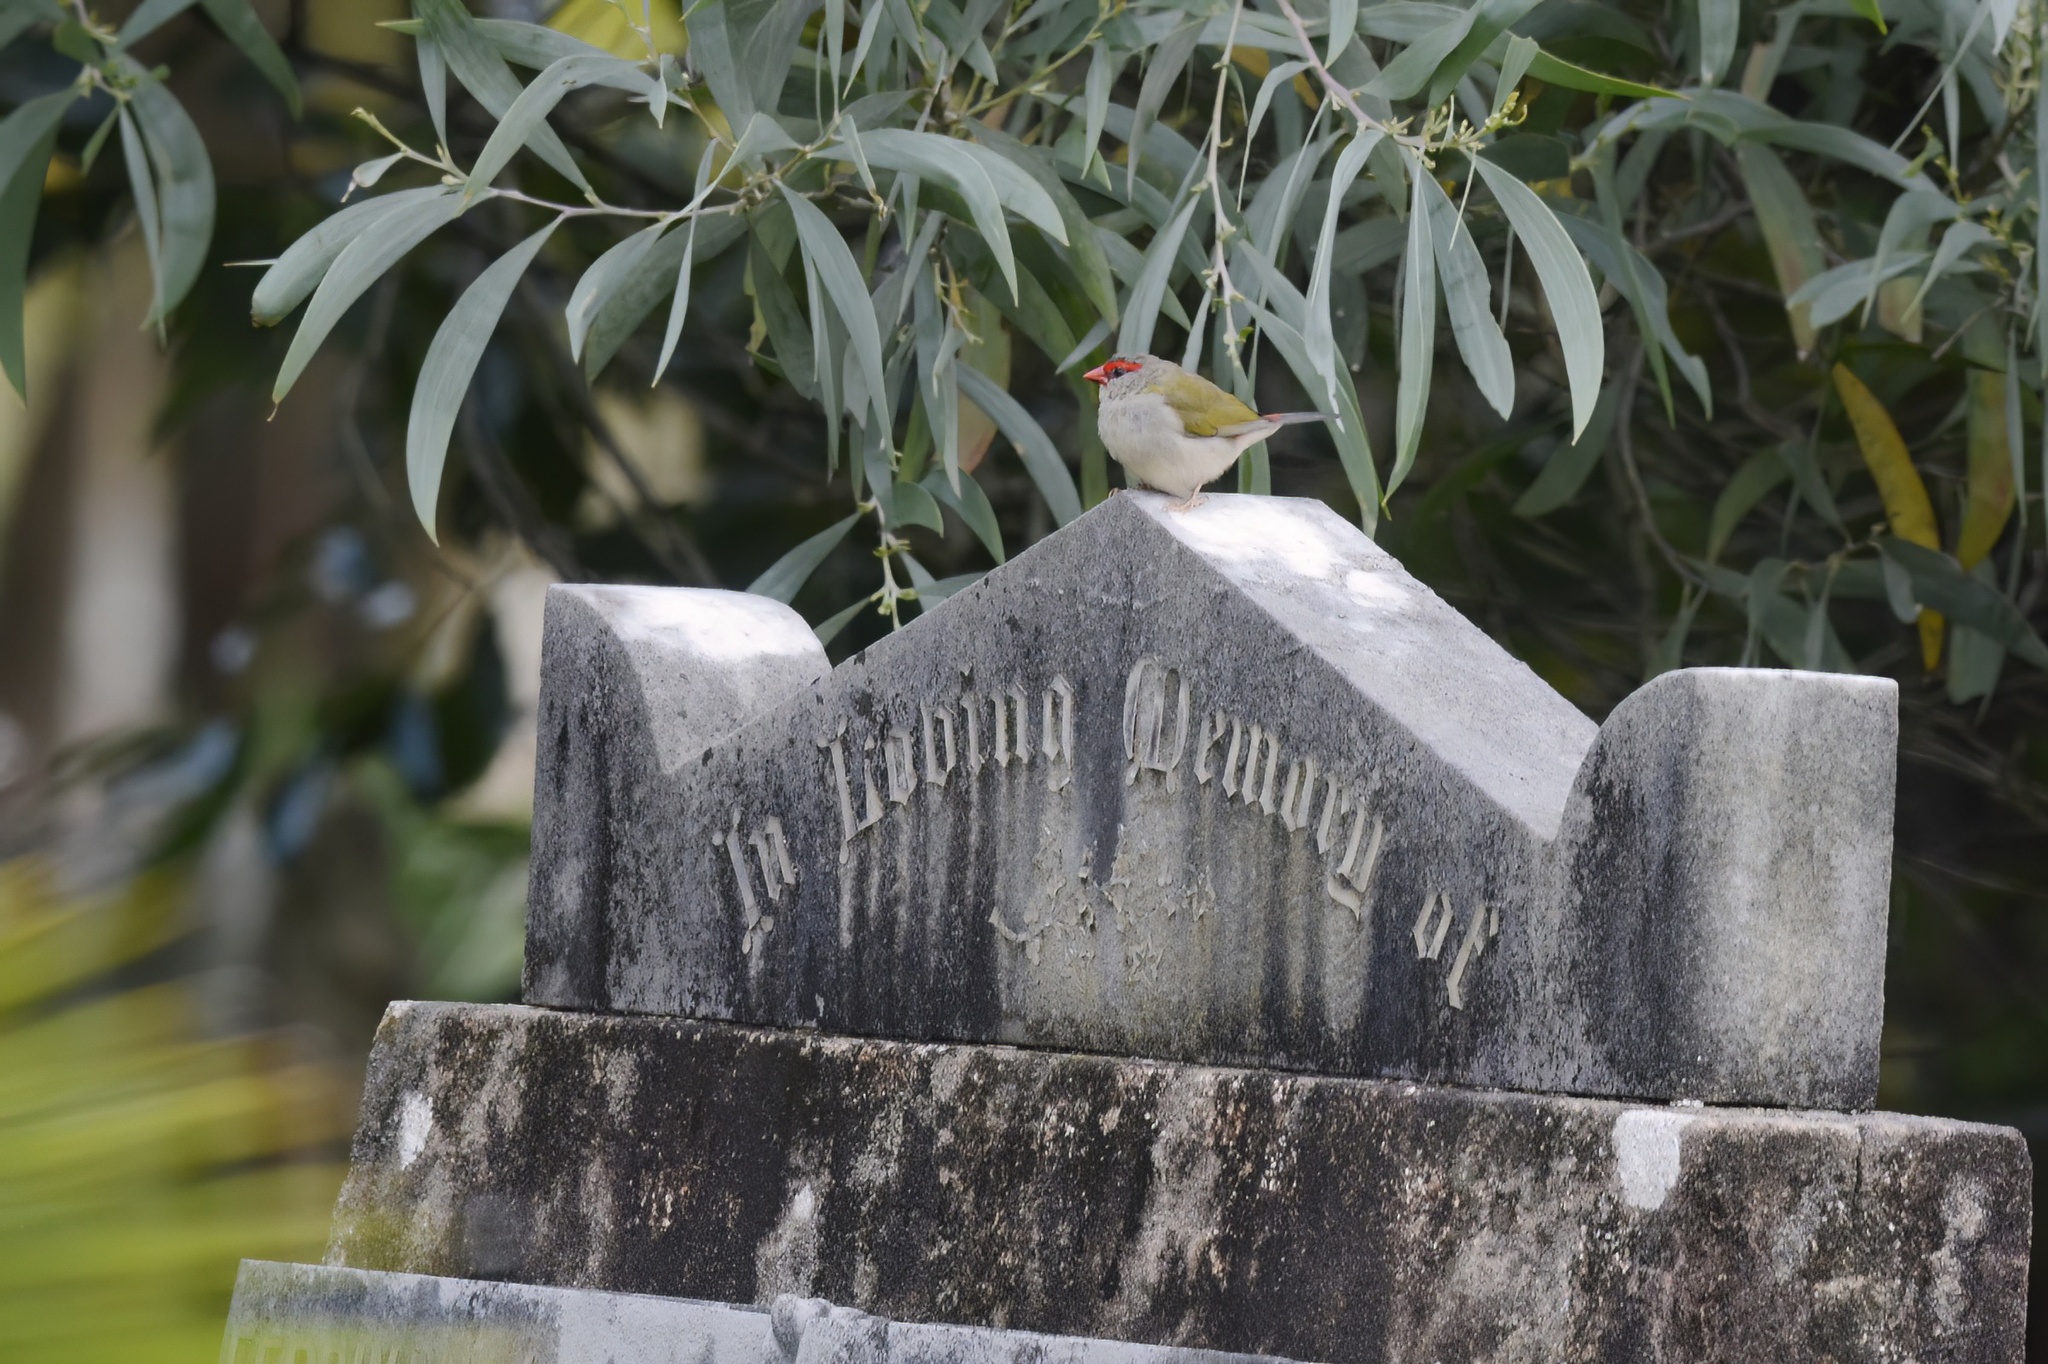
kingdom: Animalia
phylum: Chordata
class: Aves
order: Passeriformes
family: Estrildidae
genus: Neochmia
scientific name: Neochmia temporalis
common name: Red-browed finch
